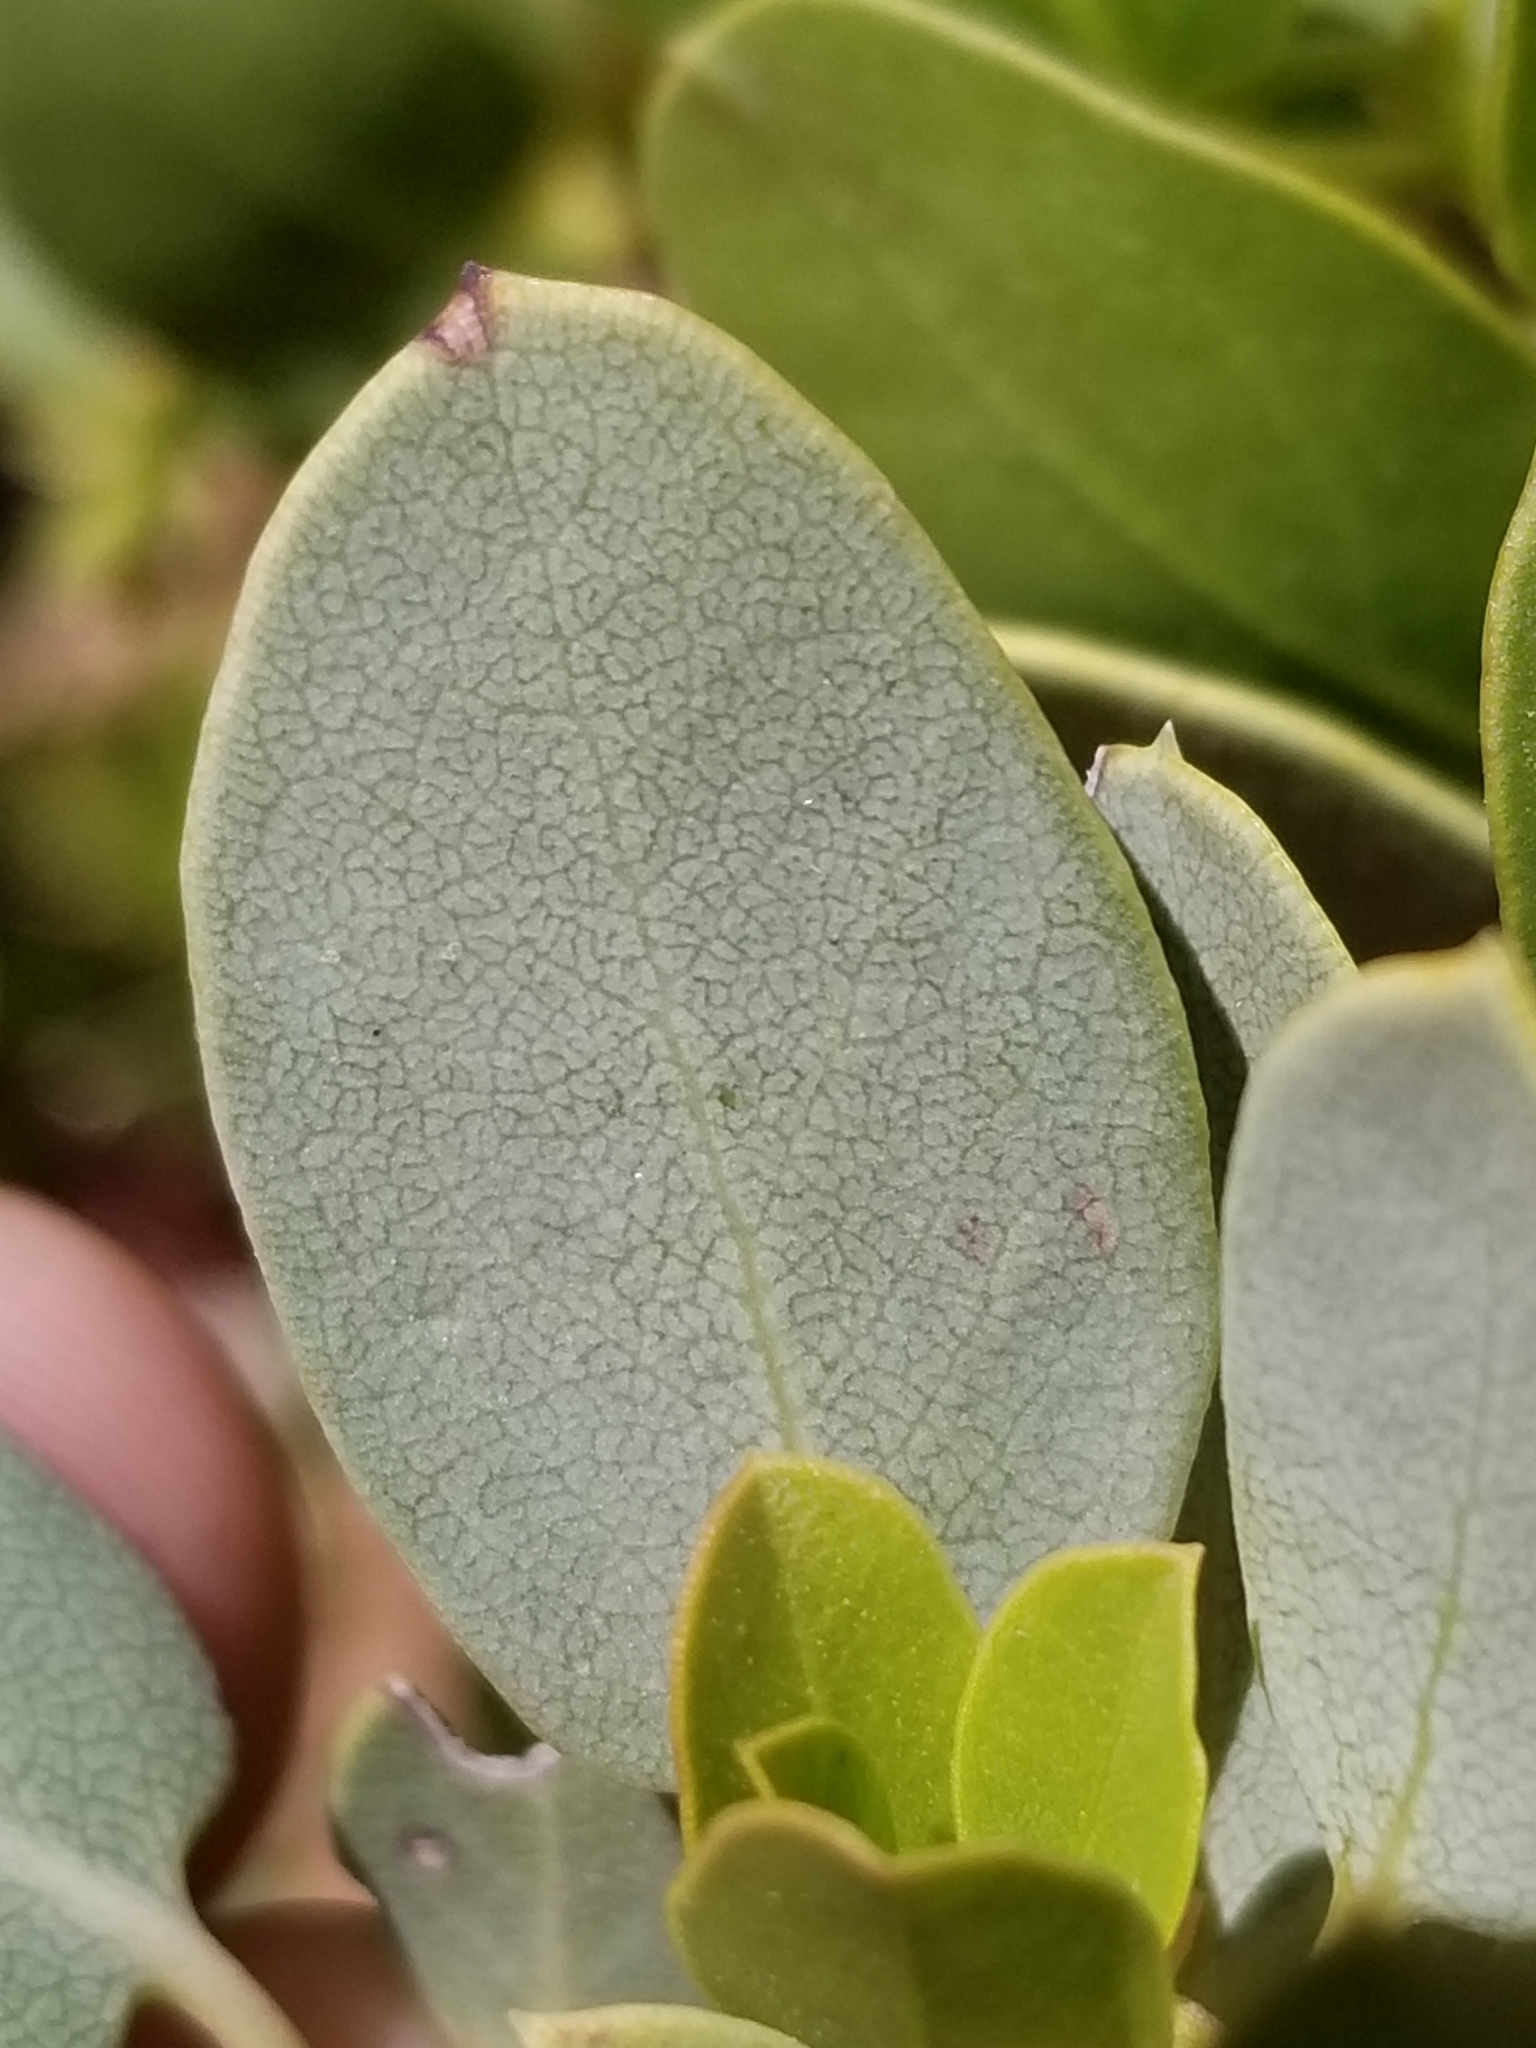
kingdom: Plantae
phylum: Tracheophyta
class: Magnoliopsida
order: Ericales
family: Ericaceae
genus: Arctostaphylos
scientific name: Arctostaphylos glauca
